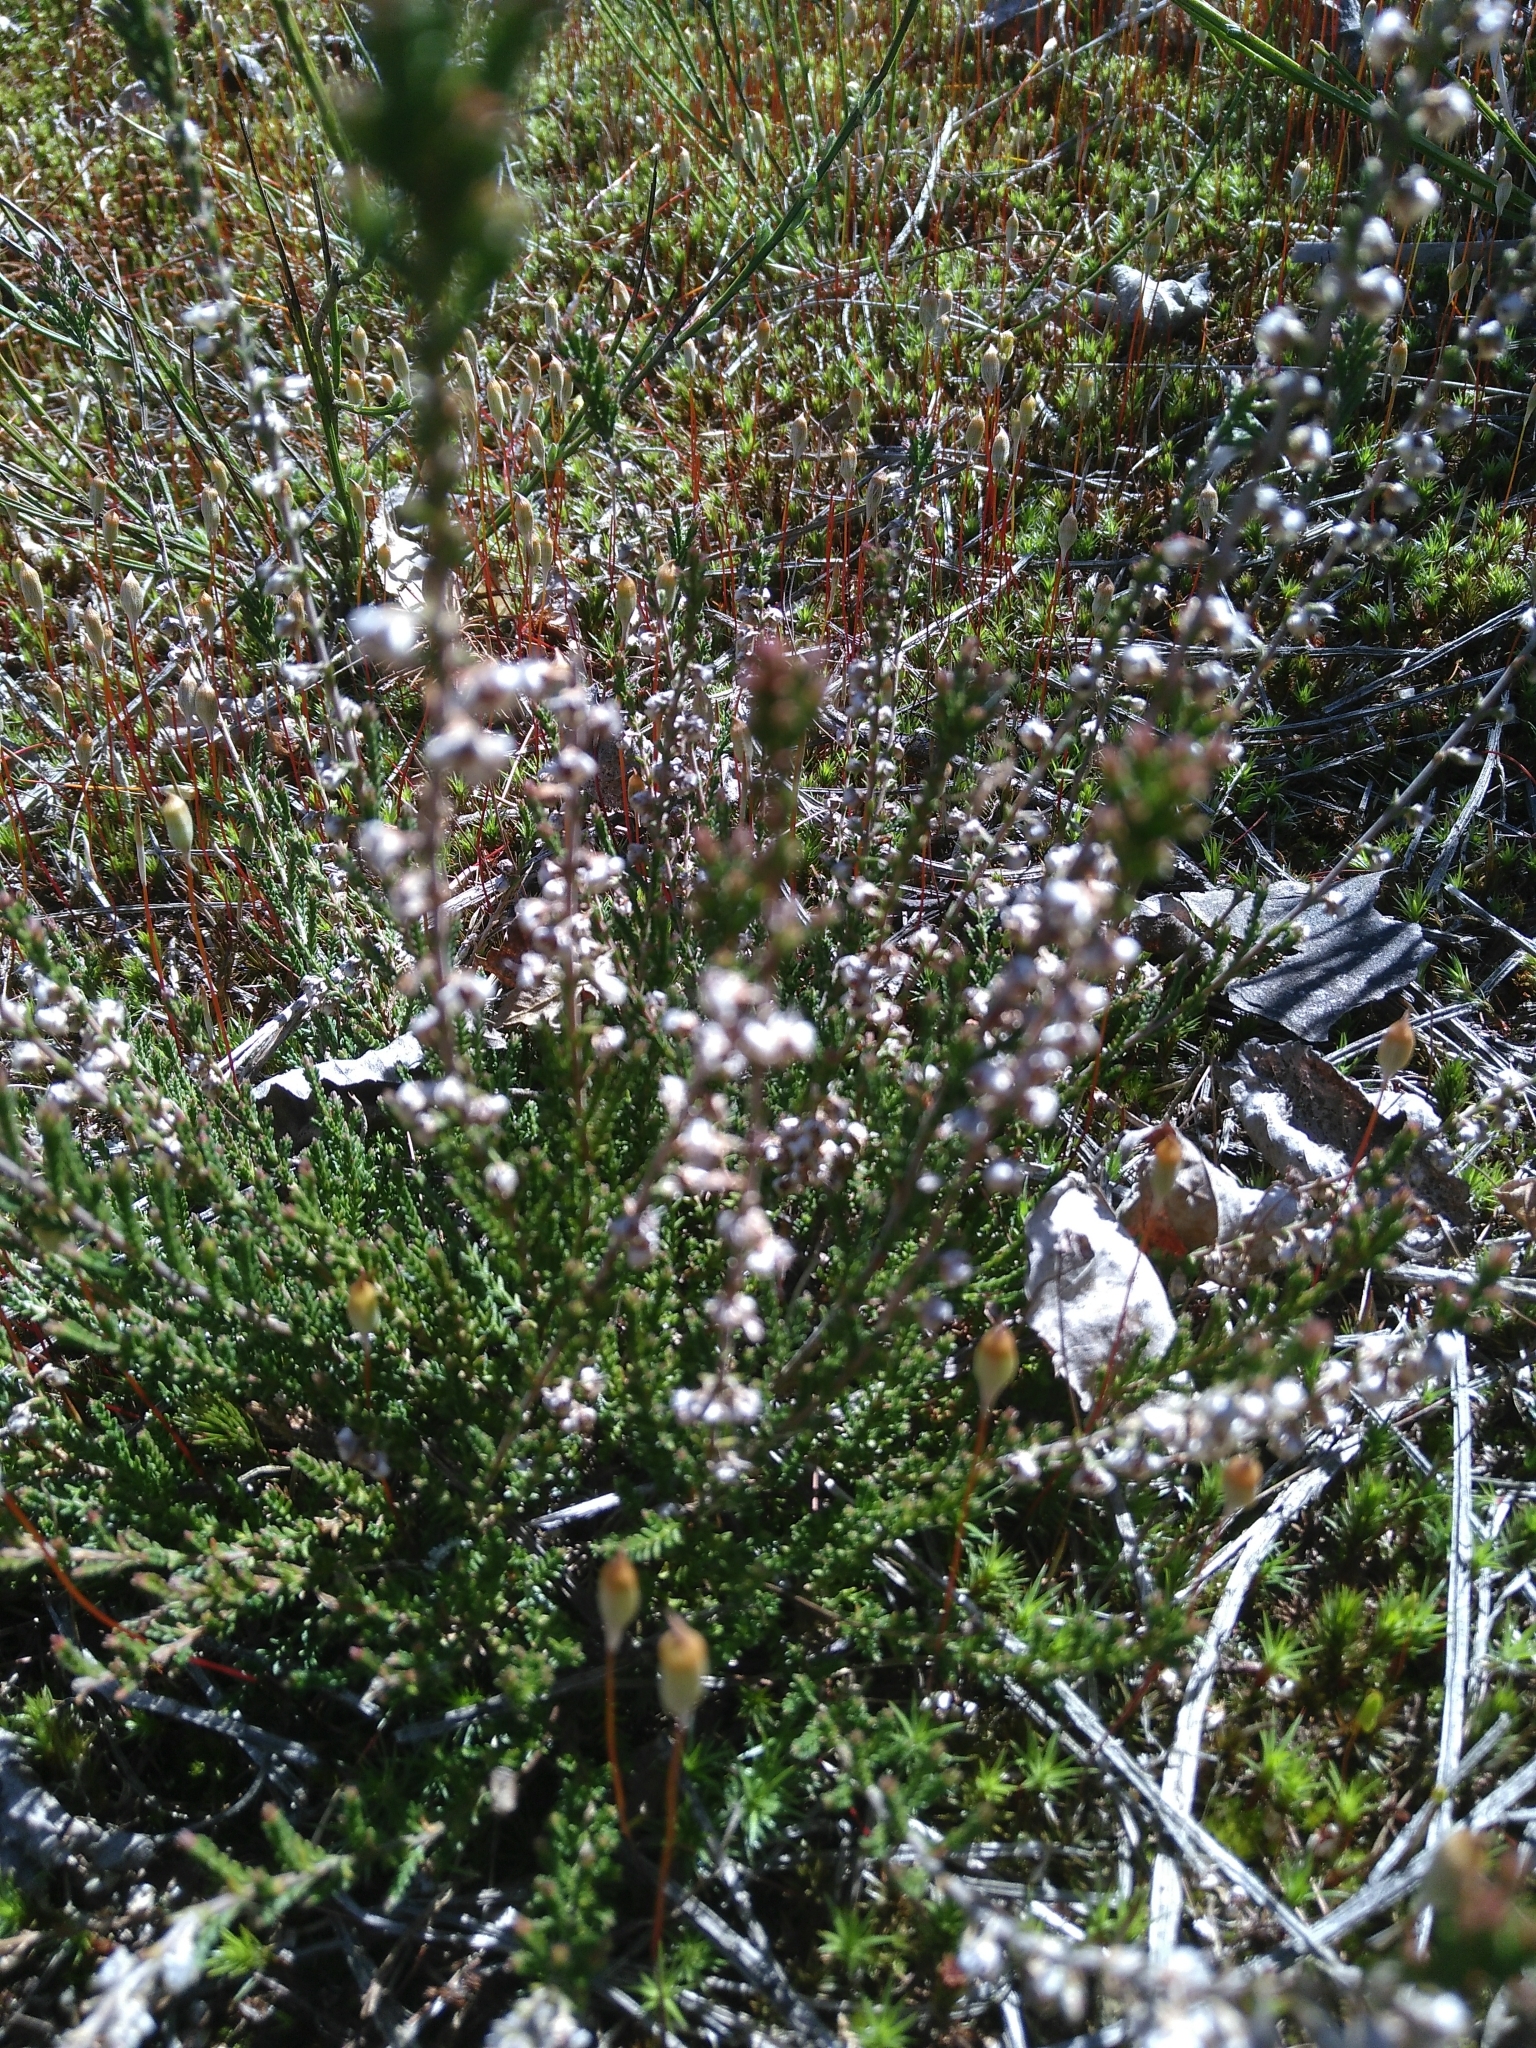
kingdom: Plantae
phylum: Tracheophyta
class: Magnoliopsida
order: Ericales
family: Ericaceae
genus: Calluna
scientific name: Calluna vulgaris
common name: Heather
